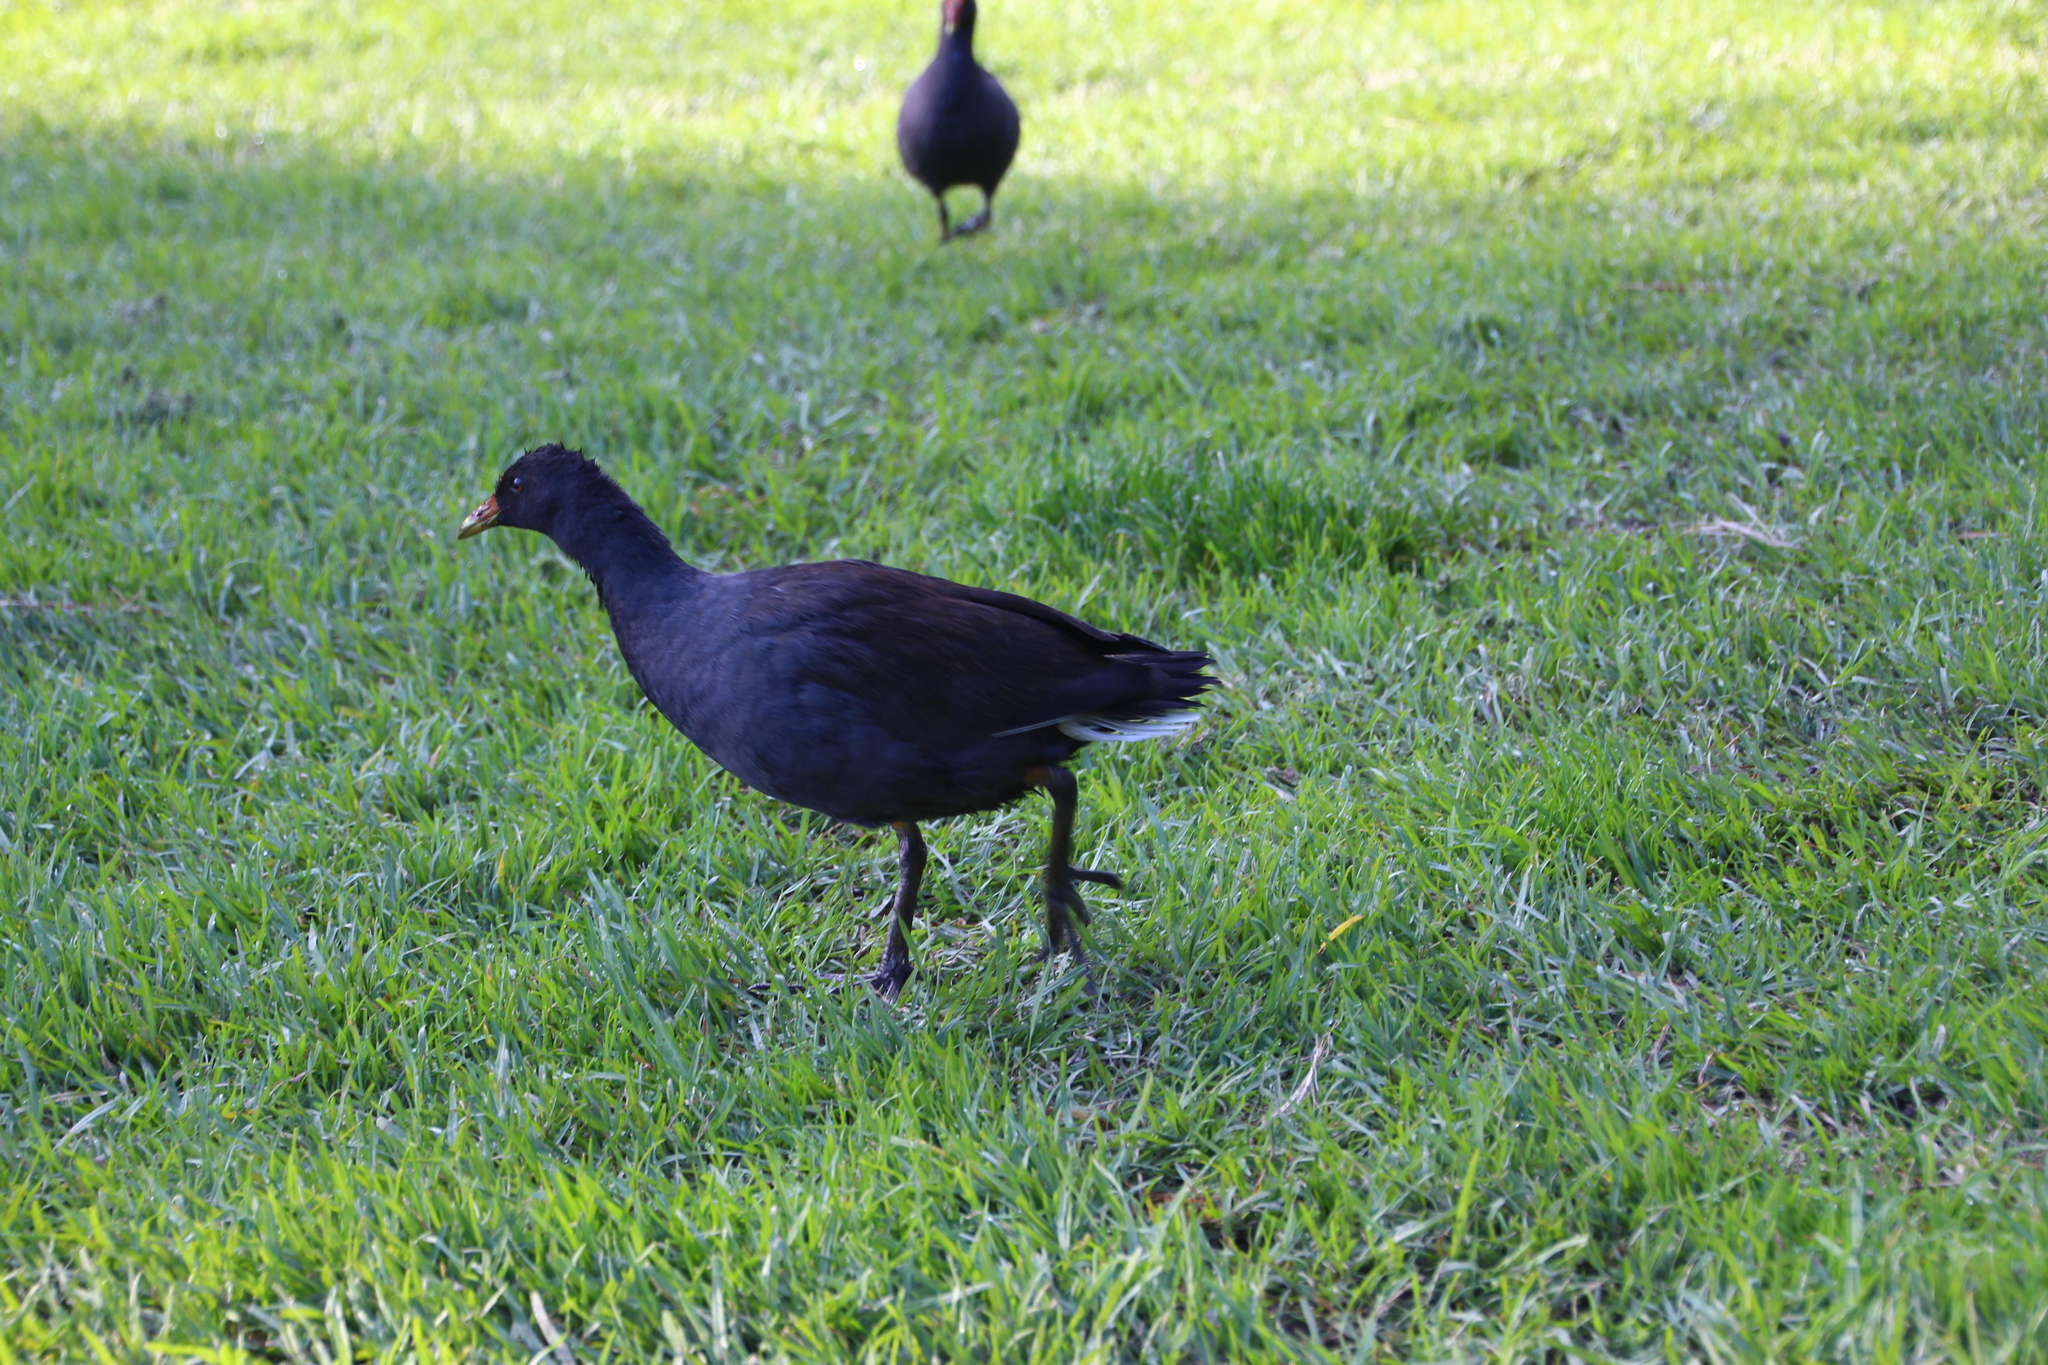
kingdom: Animalia
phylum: Chordata
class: Aves
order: Gruiformes
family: Rallidae
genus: Gallinula
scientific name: Gallinula tenebrosa
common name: Dusky moorhen
